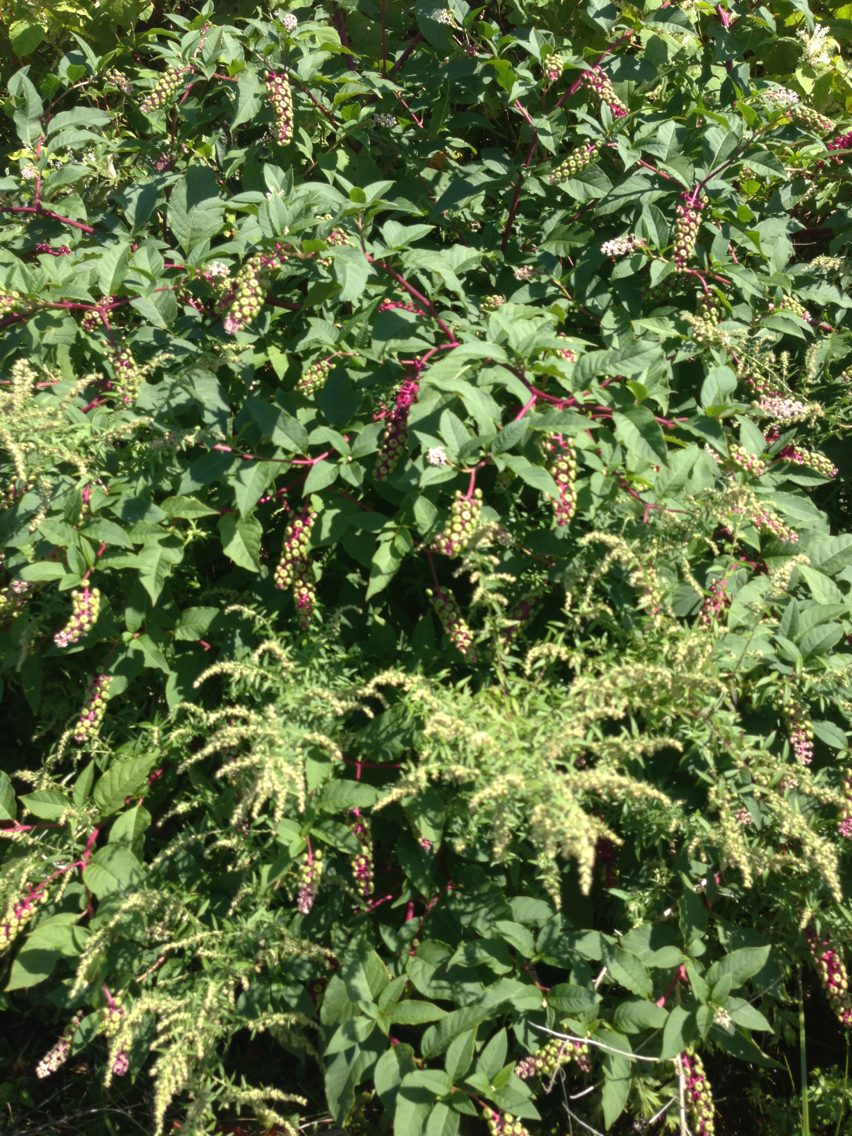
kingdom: Plantae
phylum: Tracheophyta
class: Magnoliopsida
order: Caryophyllales
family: Phytolaccaceae
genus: Phytolacca
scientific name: Phytolacca americana
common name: American pokeweed
